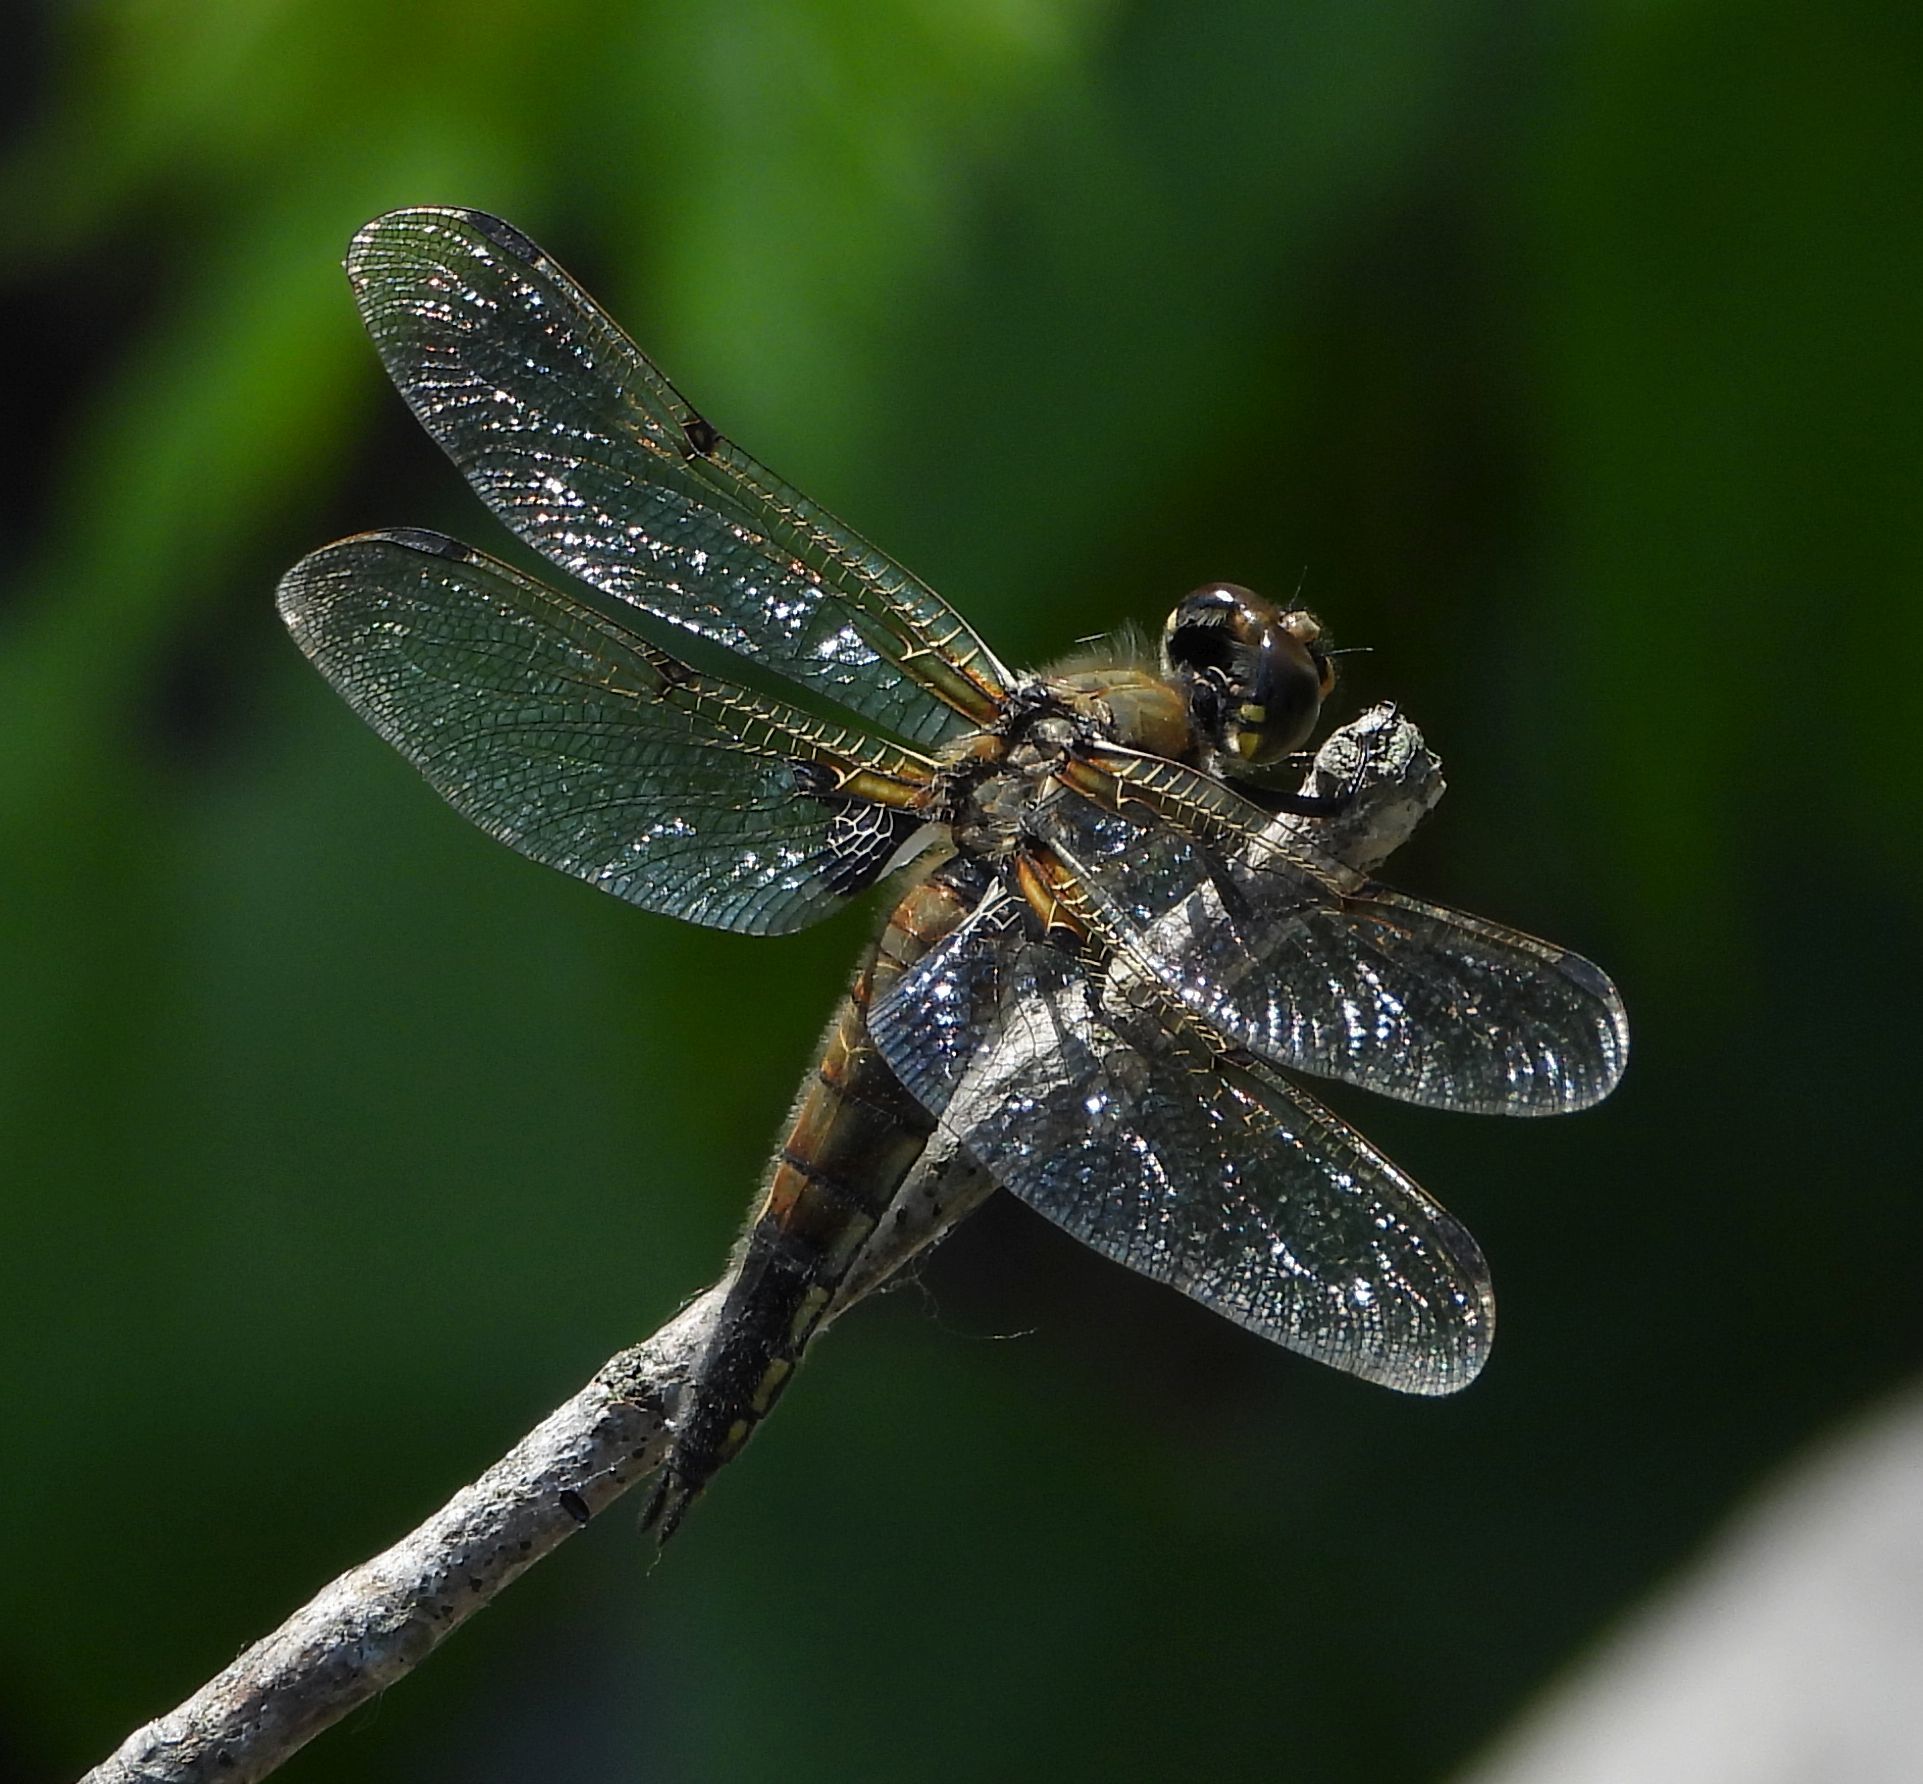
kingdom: Animalia
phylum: Arthropoda
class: Insecta
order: Odonata
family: Libellulidae
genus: Libellula
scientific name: Libellula quadrimaculata
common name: Four-spotted chaser
